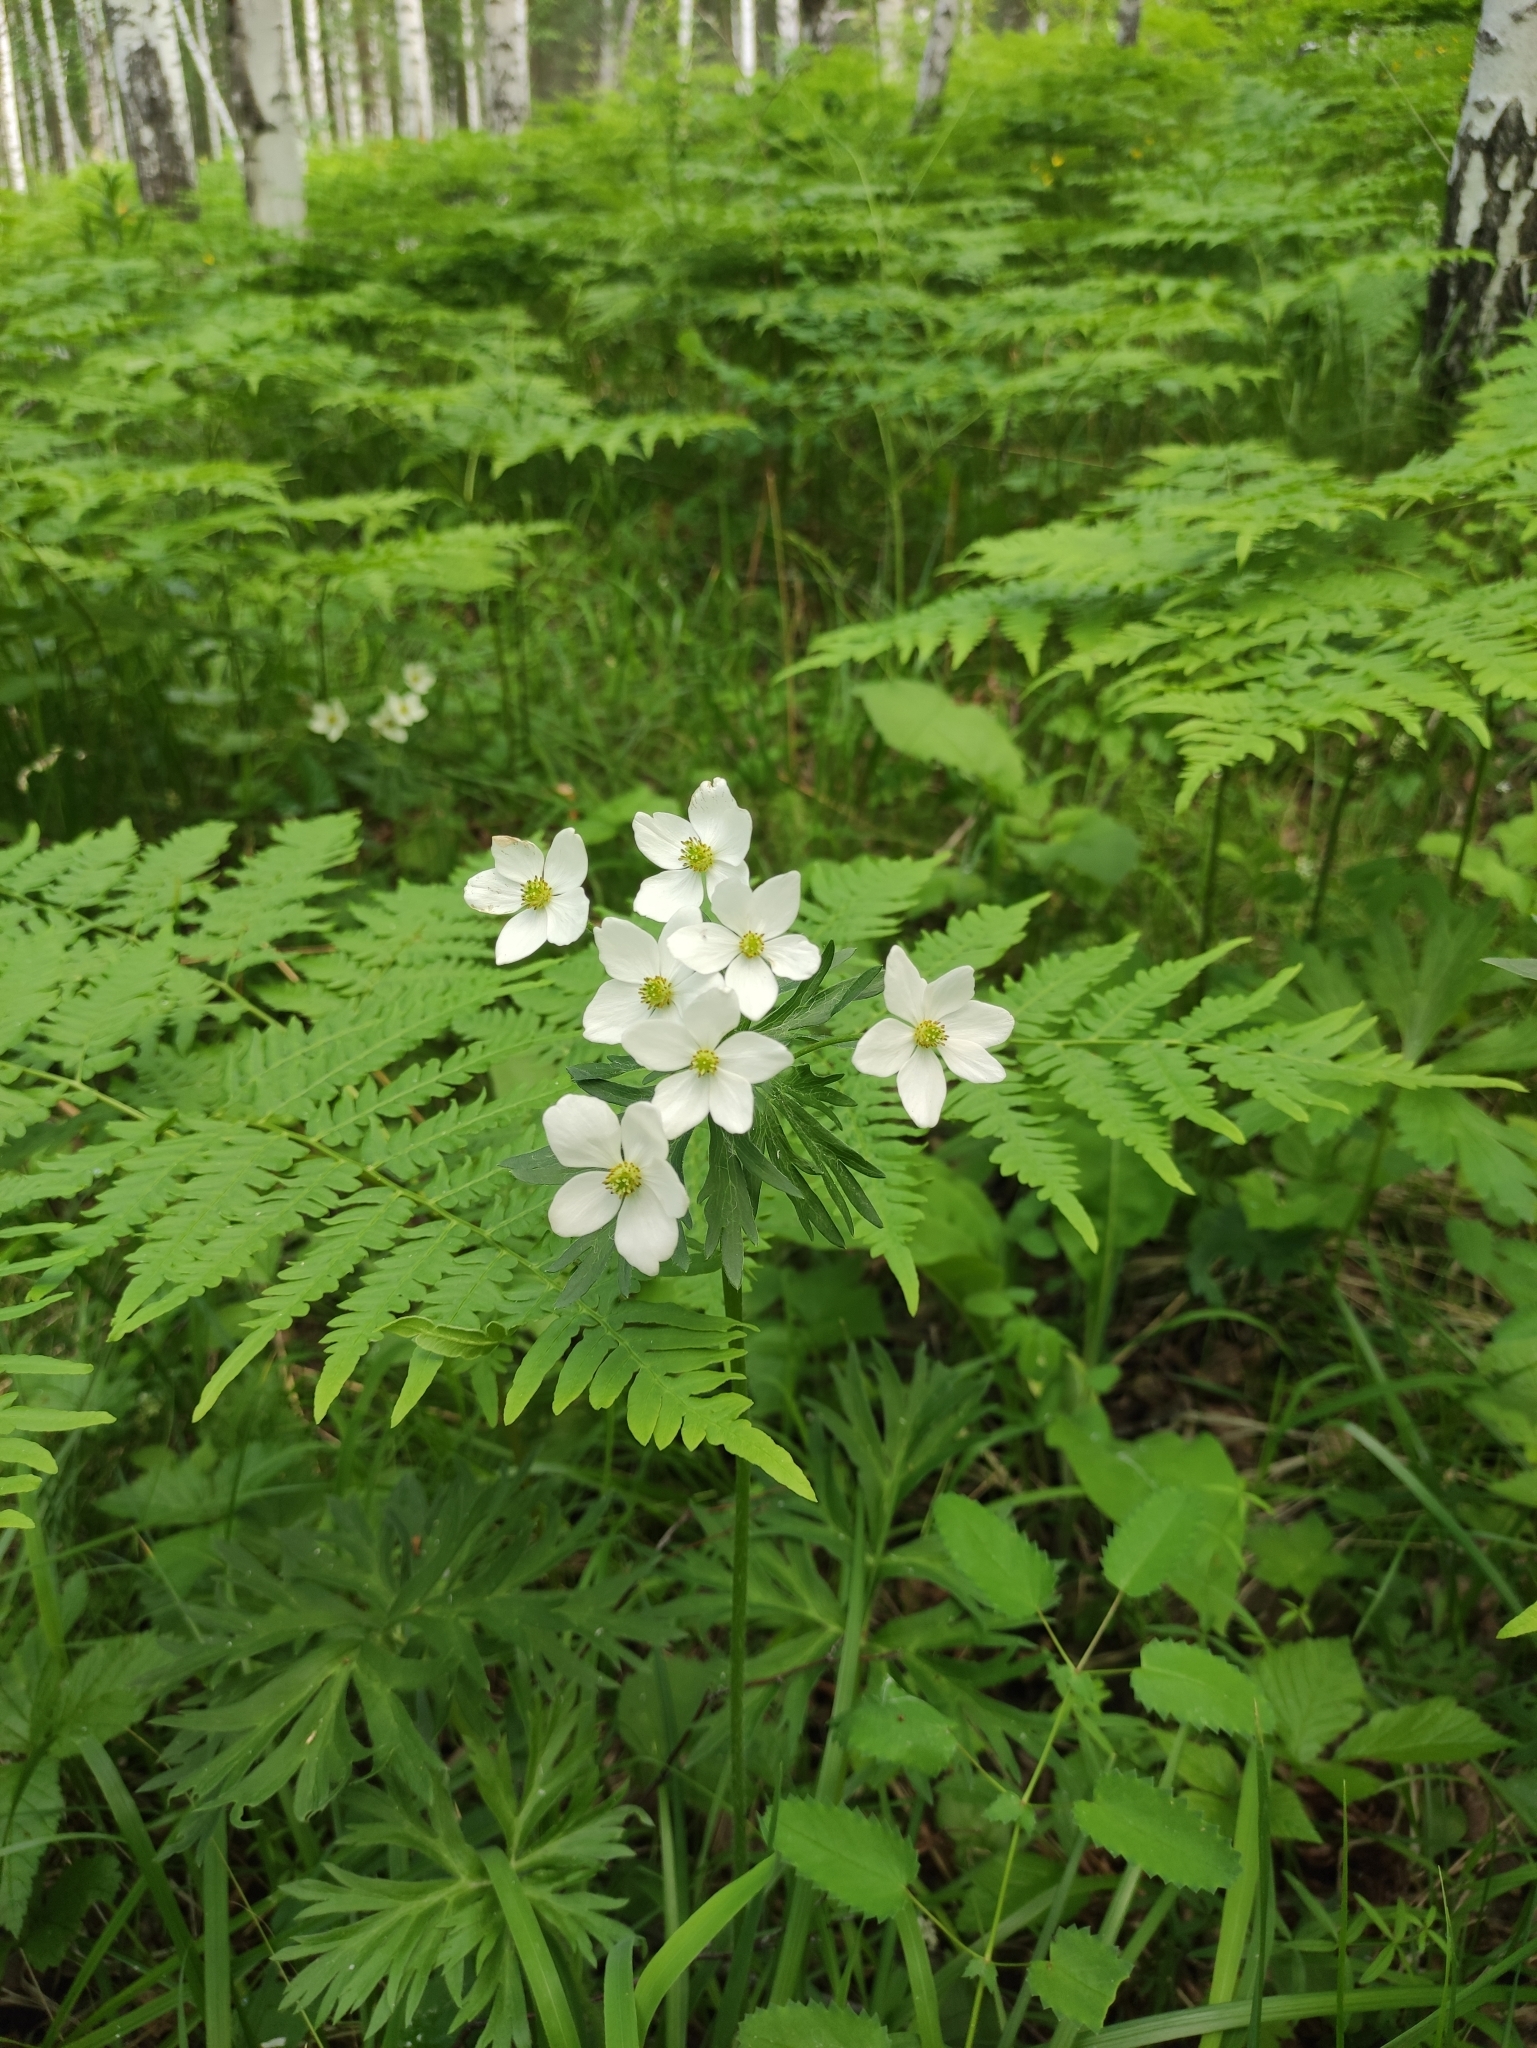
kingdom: Plantae
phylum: Tracheophyta
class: Magnoliopsida
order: Ranunculales
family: Ranunculaceae
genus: Anemonastrum
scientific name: Anemonastrum narcissiflorum
